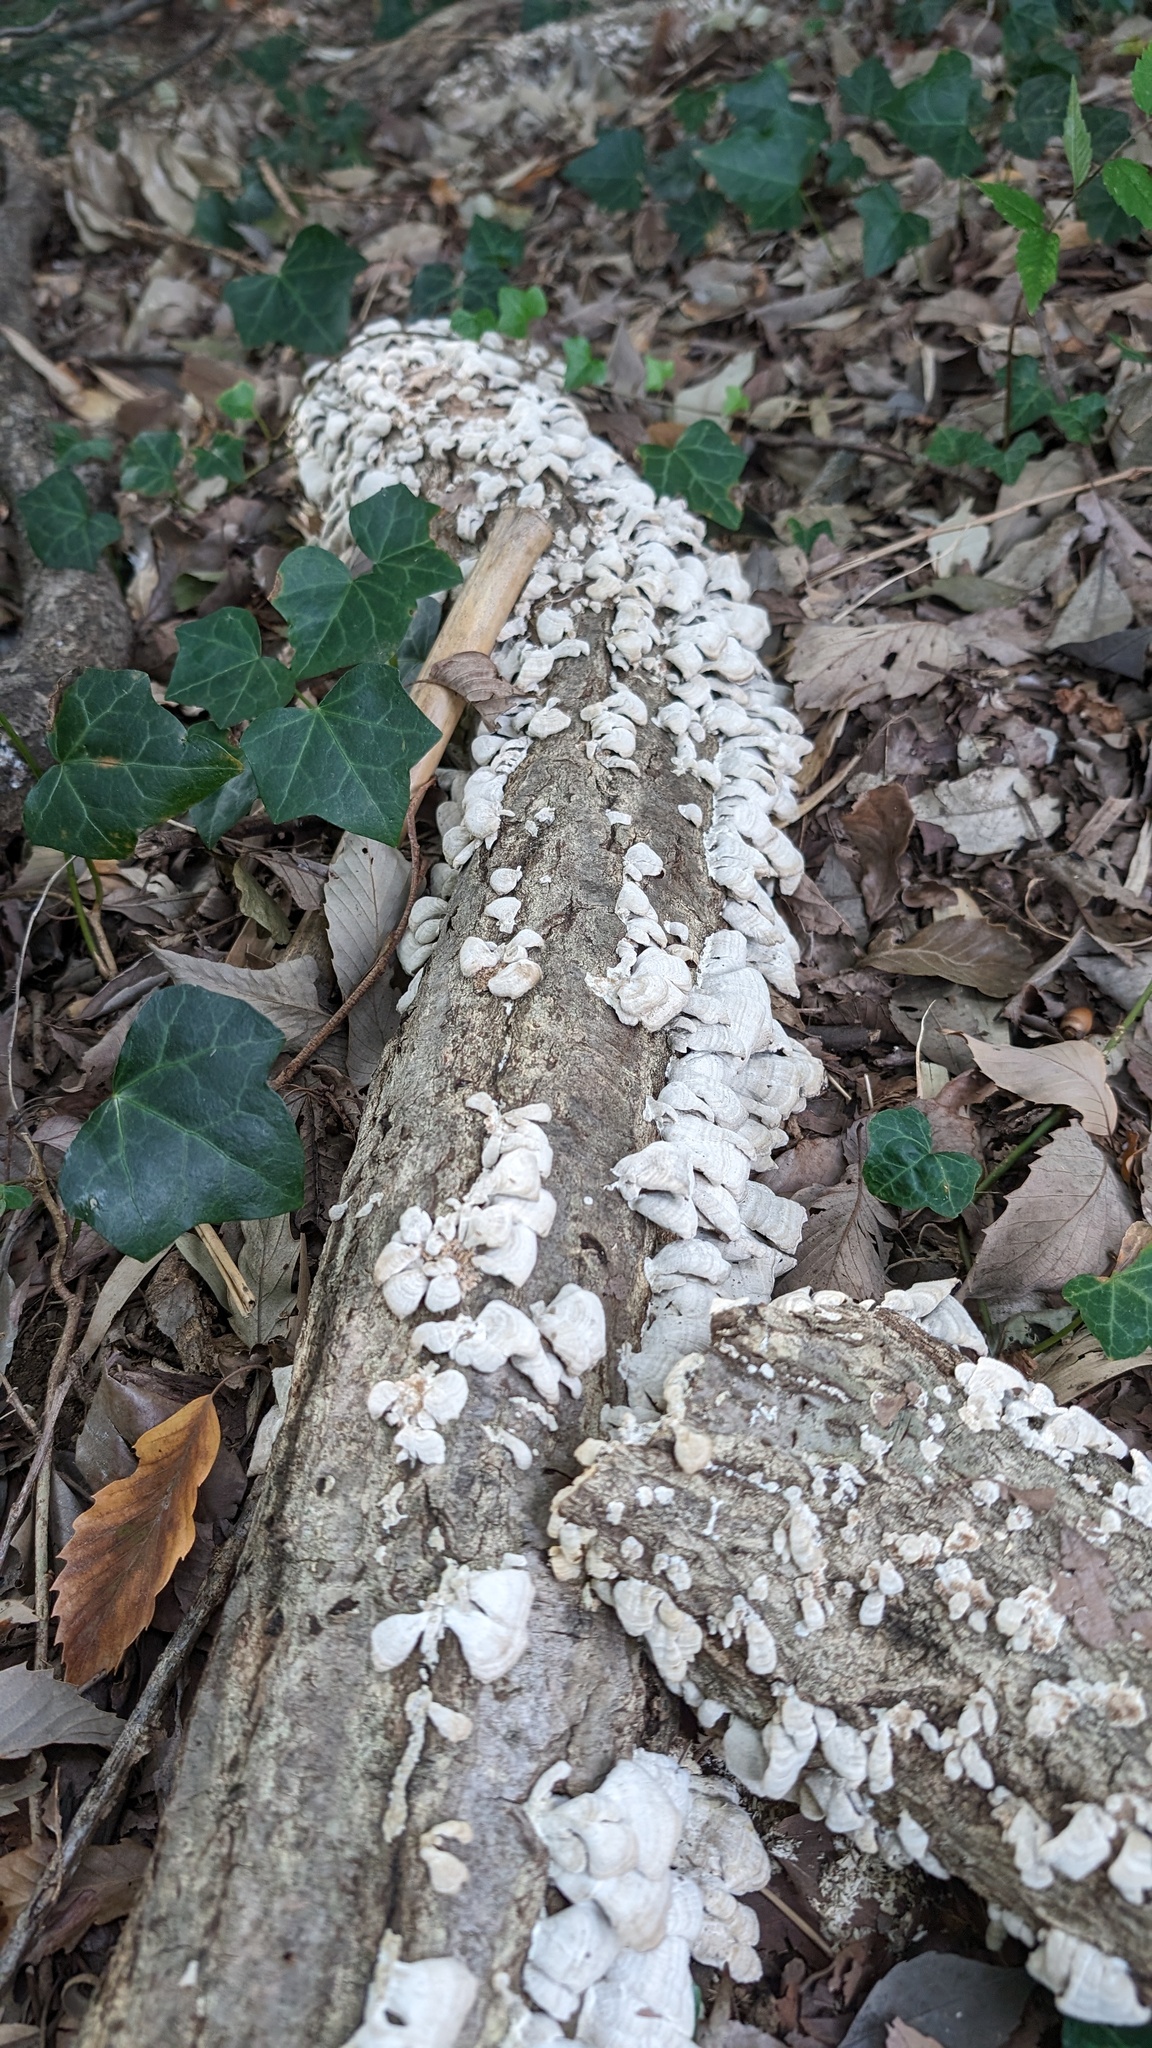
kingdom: Fungi
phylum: Basidiomycota
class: Agaricomycetes
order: Hymenochaetales
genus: Trichaptum
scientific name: Trichaptum biforme
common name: Violet-toothed polypore
